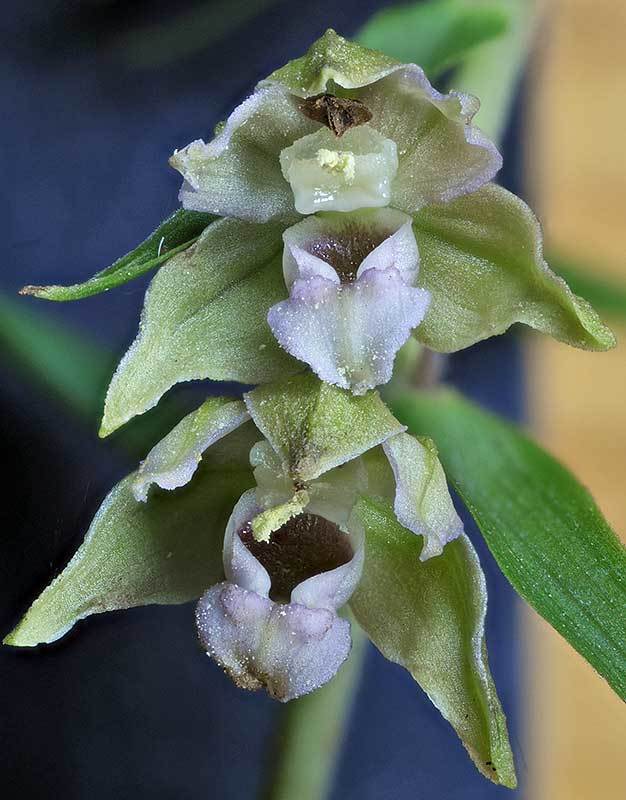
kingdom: Plantae
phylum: Tracheophyta
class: Liliopsida
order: Asparagales
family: Orchidaceae
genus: Epipactis
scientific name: Epipactis helleborine
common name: Broad-leaved helleborine
